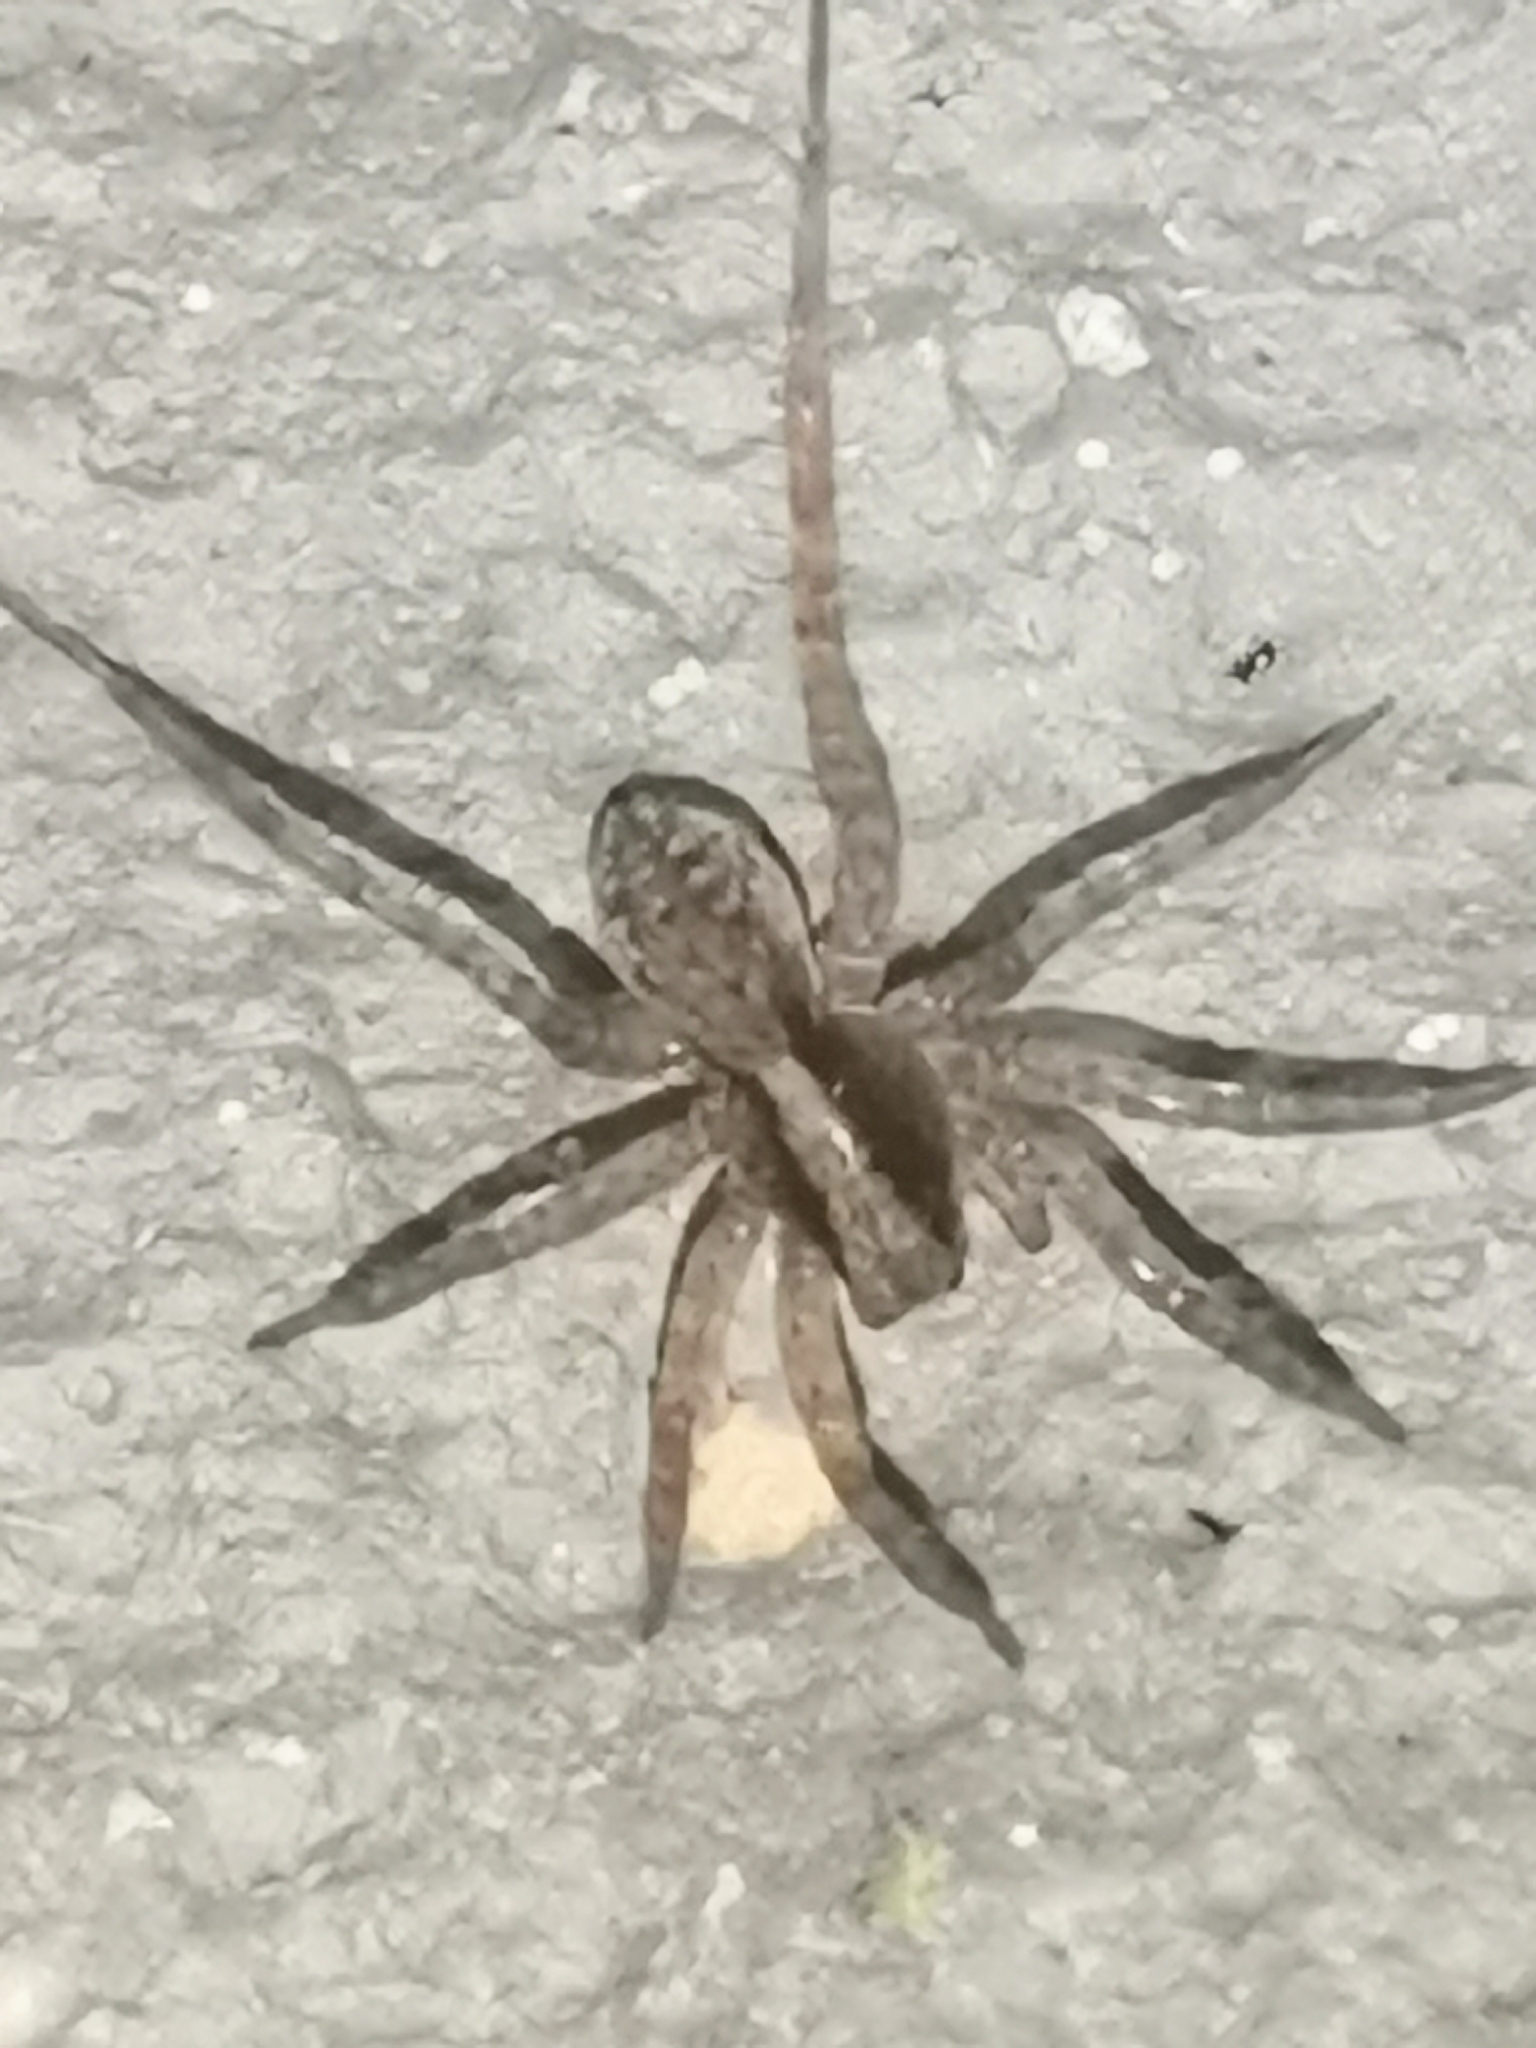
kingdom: Animalia
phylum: Arthropoda
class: Arachnida
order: Araneae
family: Lycosidae
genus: Pardosa
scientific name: Pardosa
